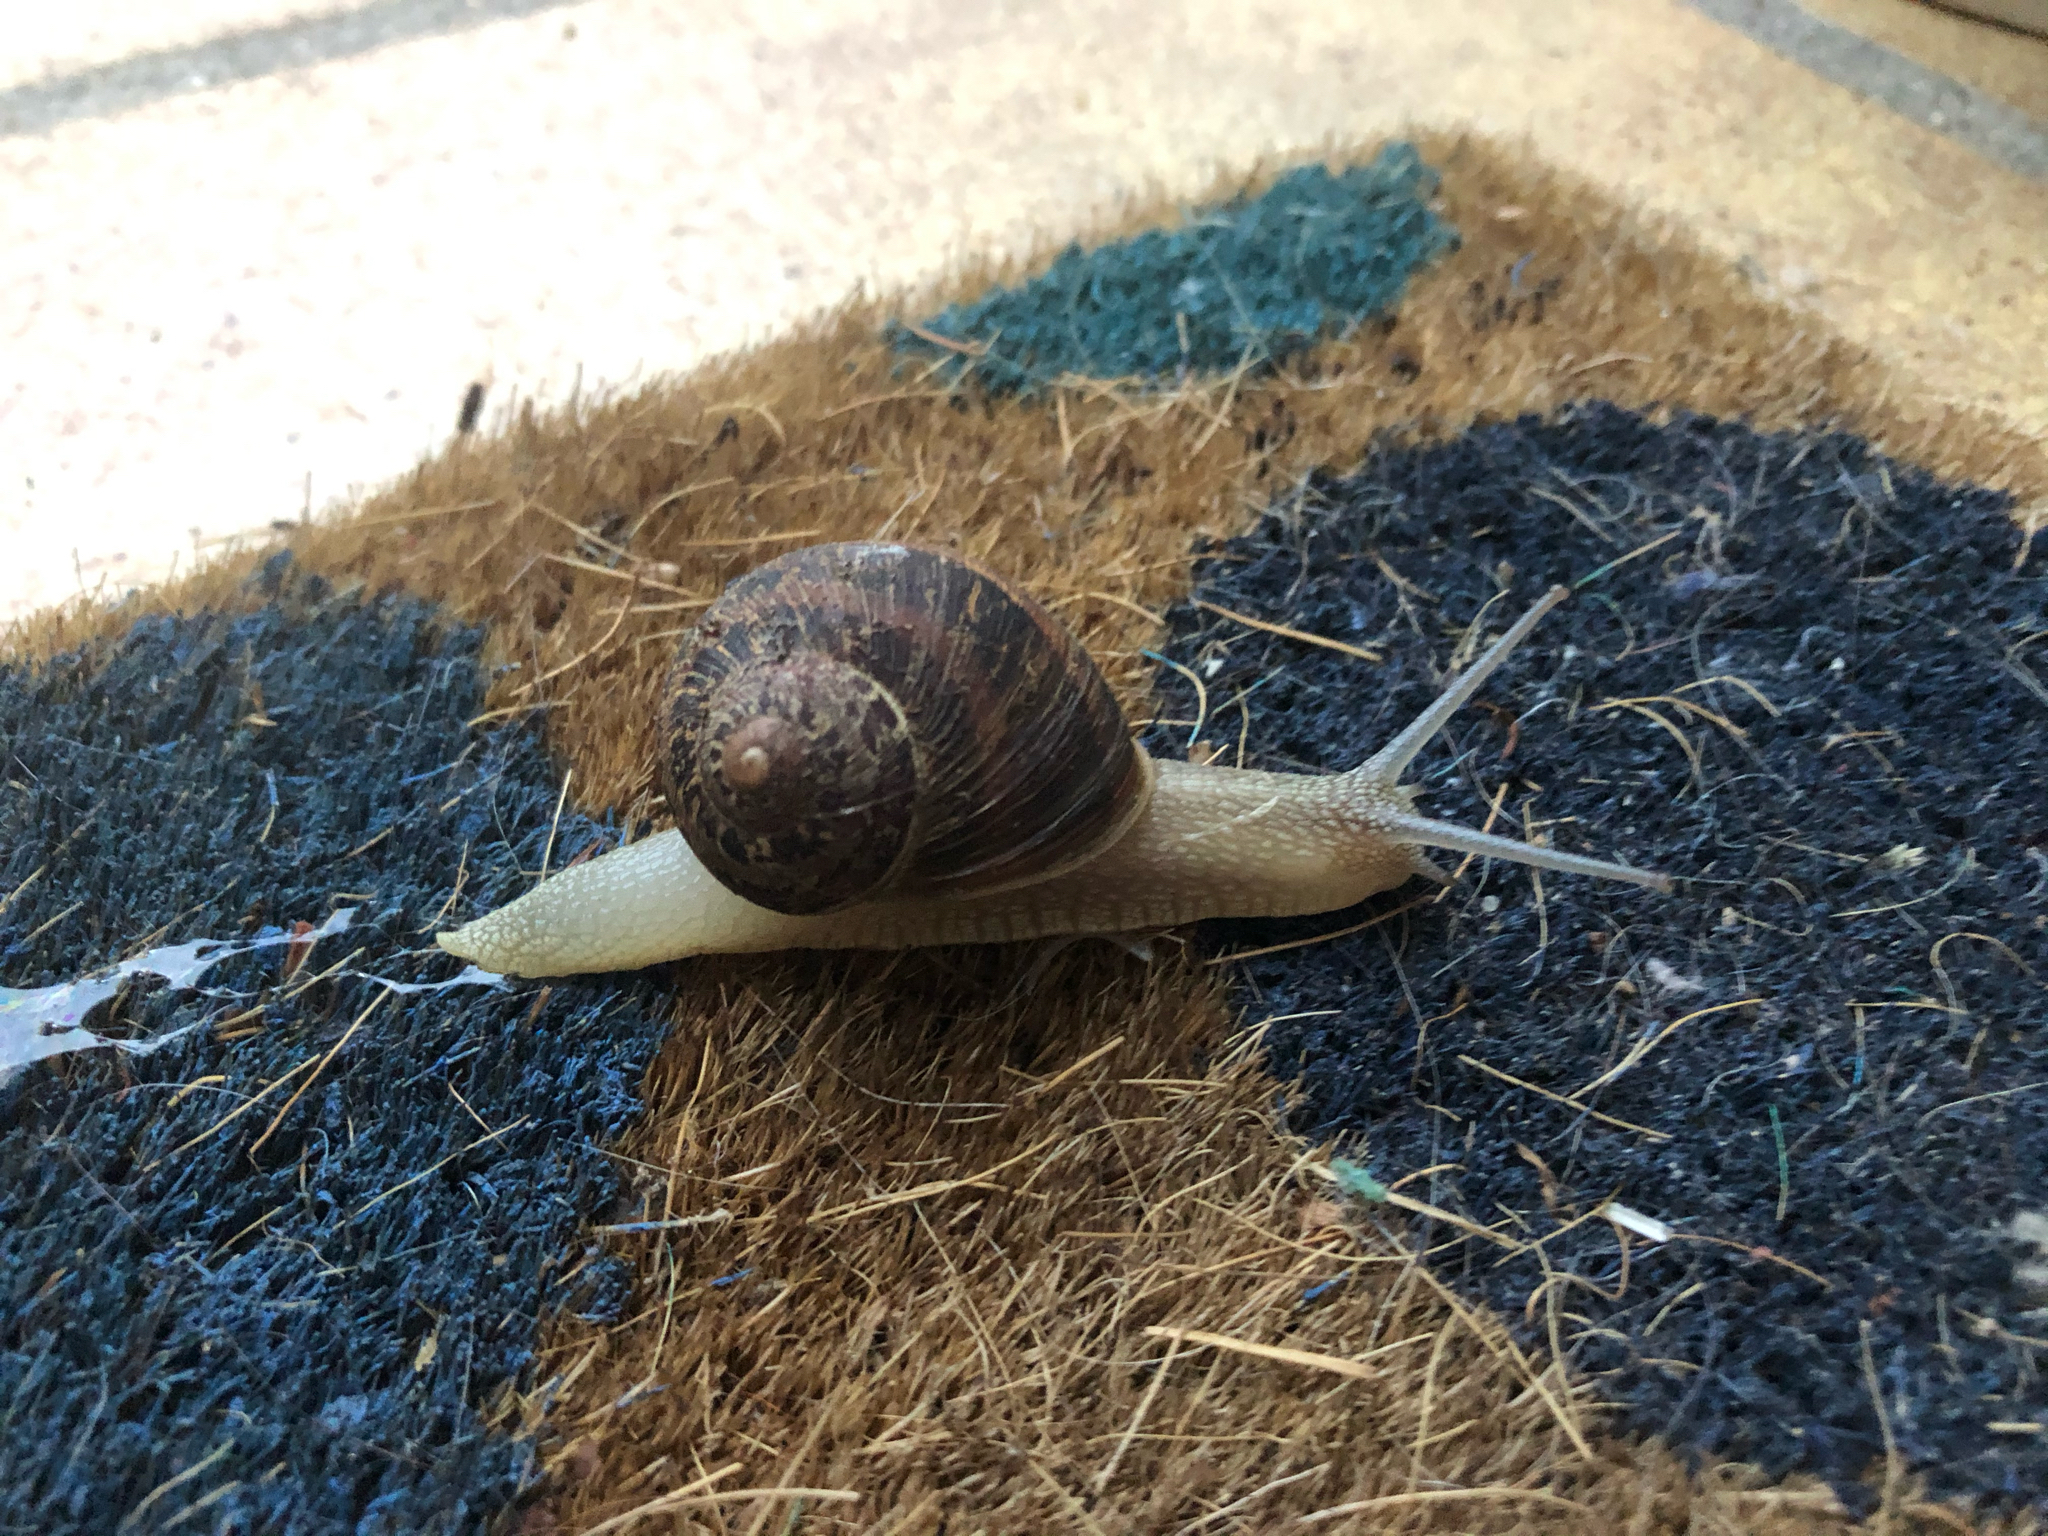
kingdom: Animalia
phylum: Mollusca
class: Gastropoda
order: Stylommatophora
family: Helicidae
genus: Cornu
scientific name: Cornu aspersum
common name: Brown garden snail
